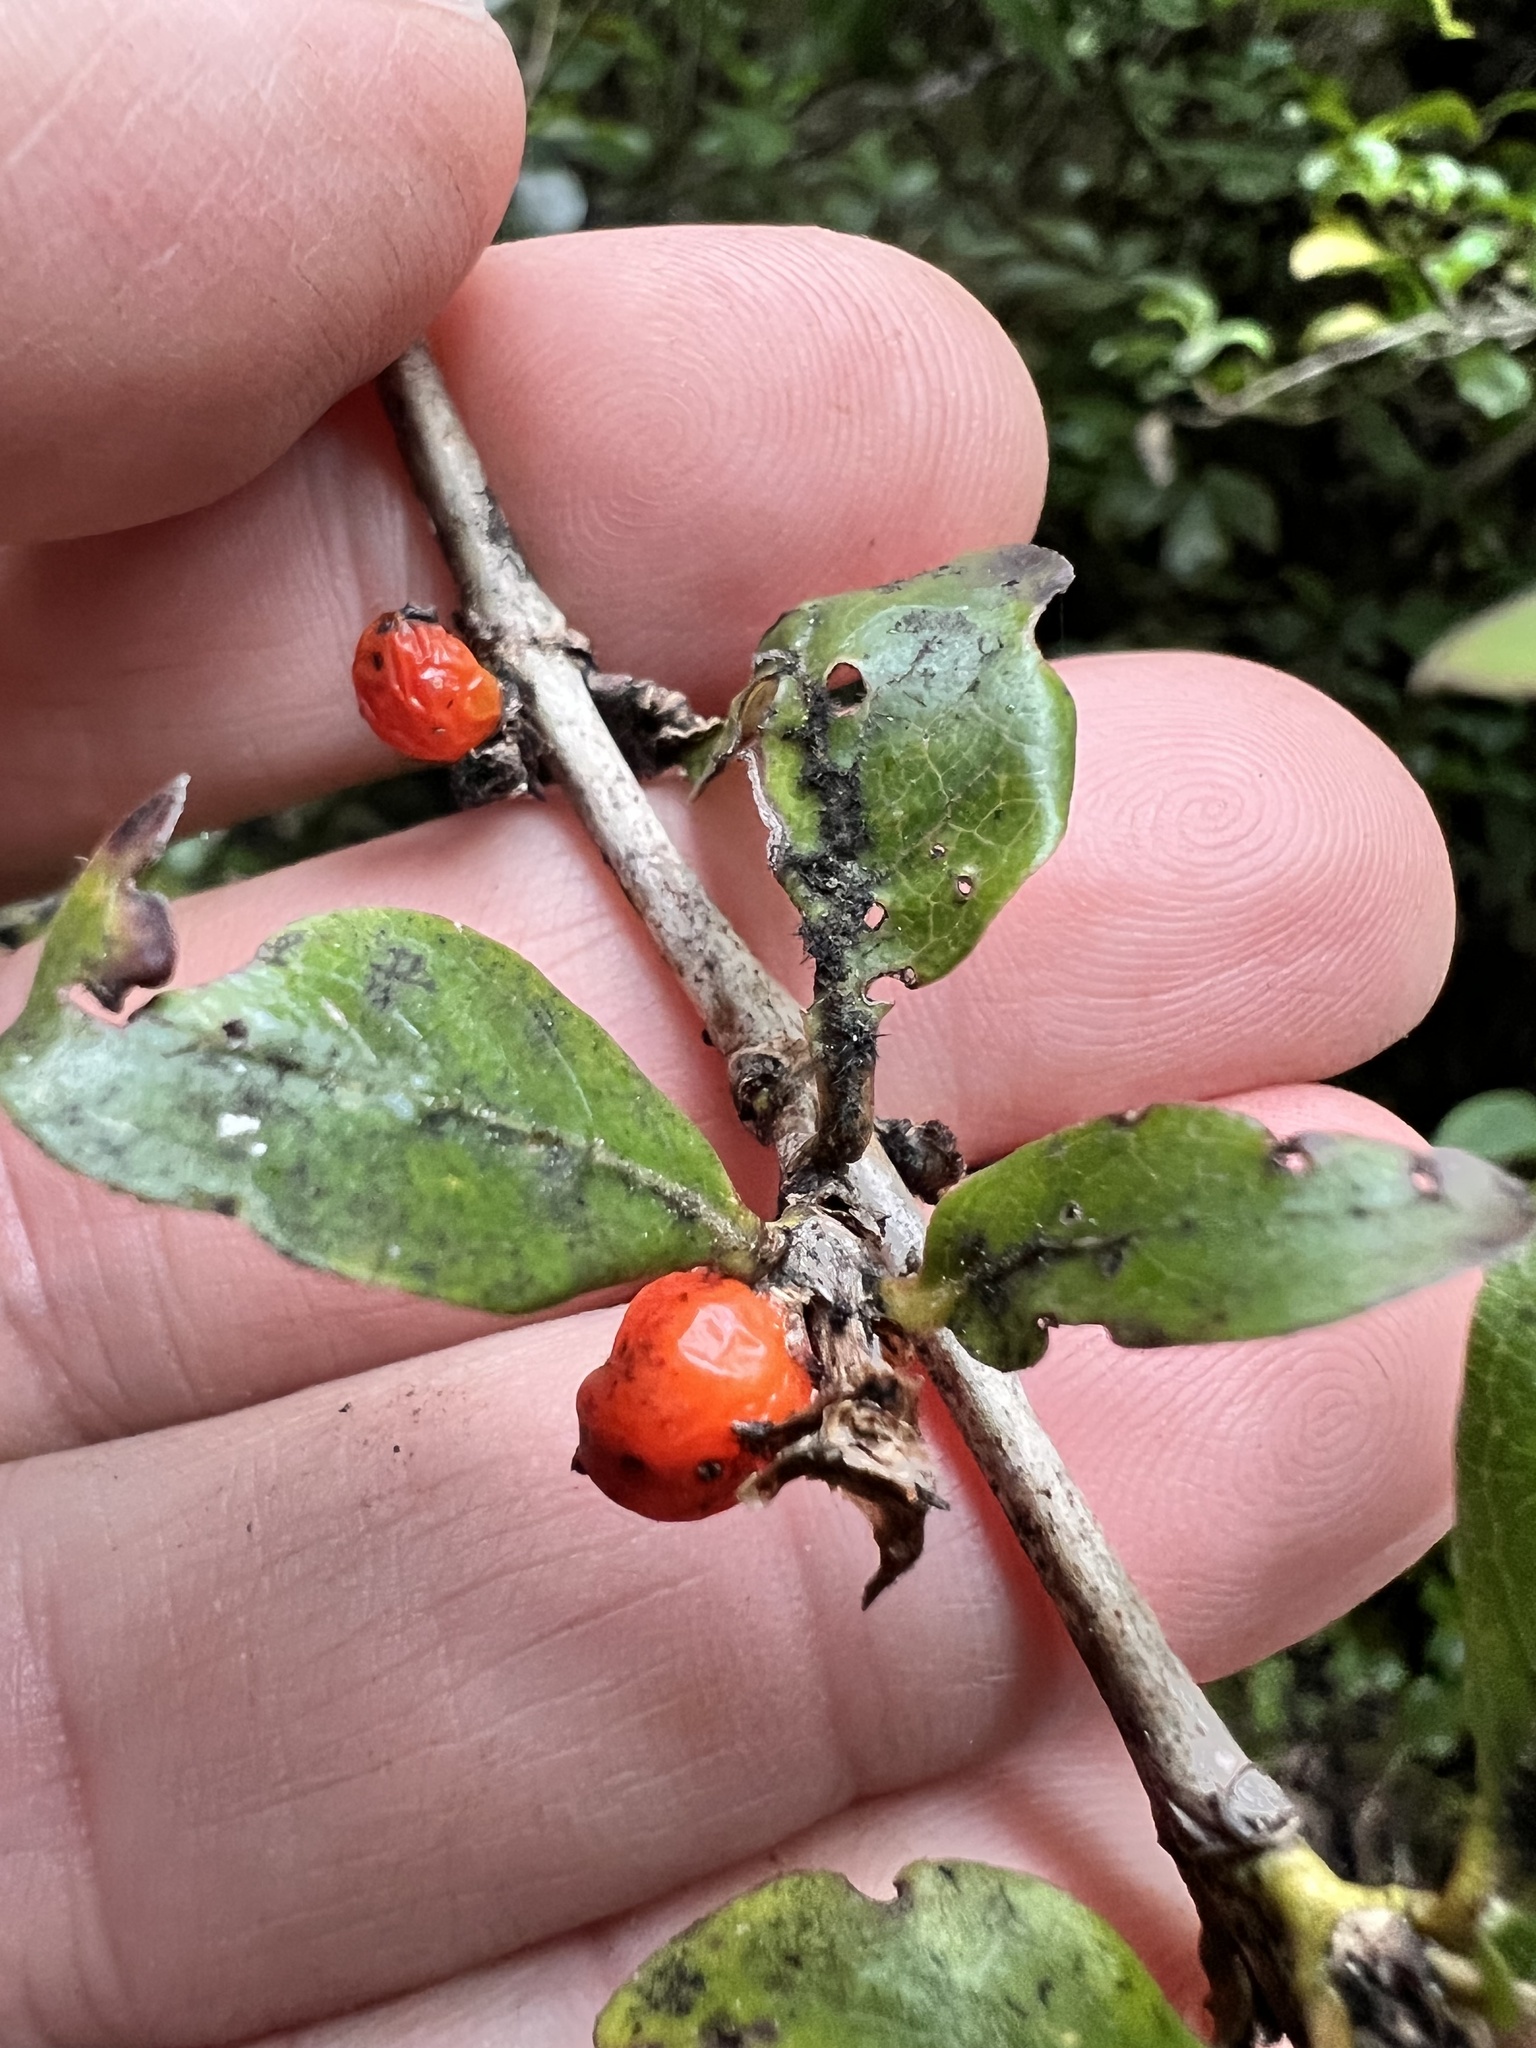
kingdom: Plantae
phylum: Tracheophyta
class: Magnoliopsida
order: Gentianales
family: Rubiaceae
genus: Coprosma
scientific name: Coprosma tenuifolia
